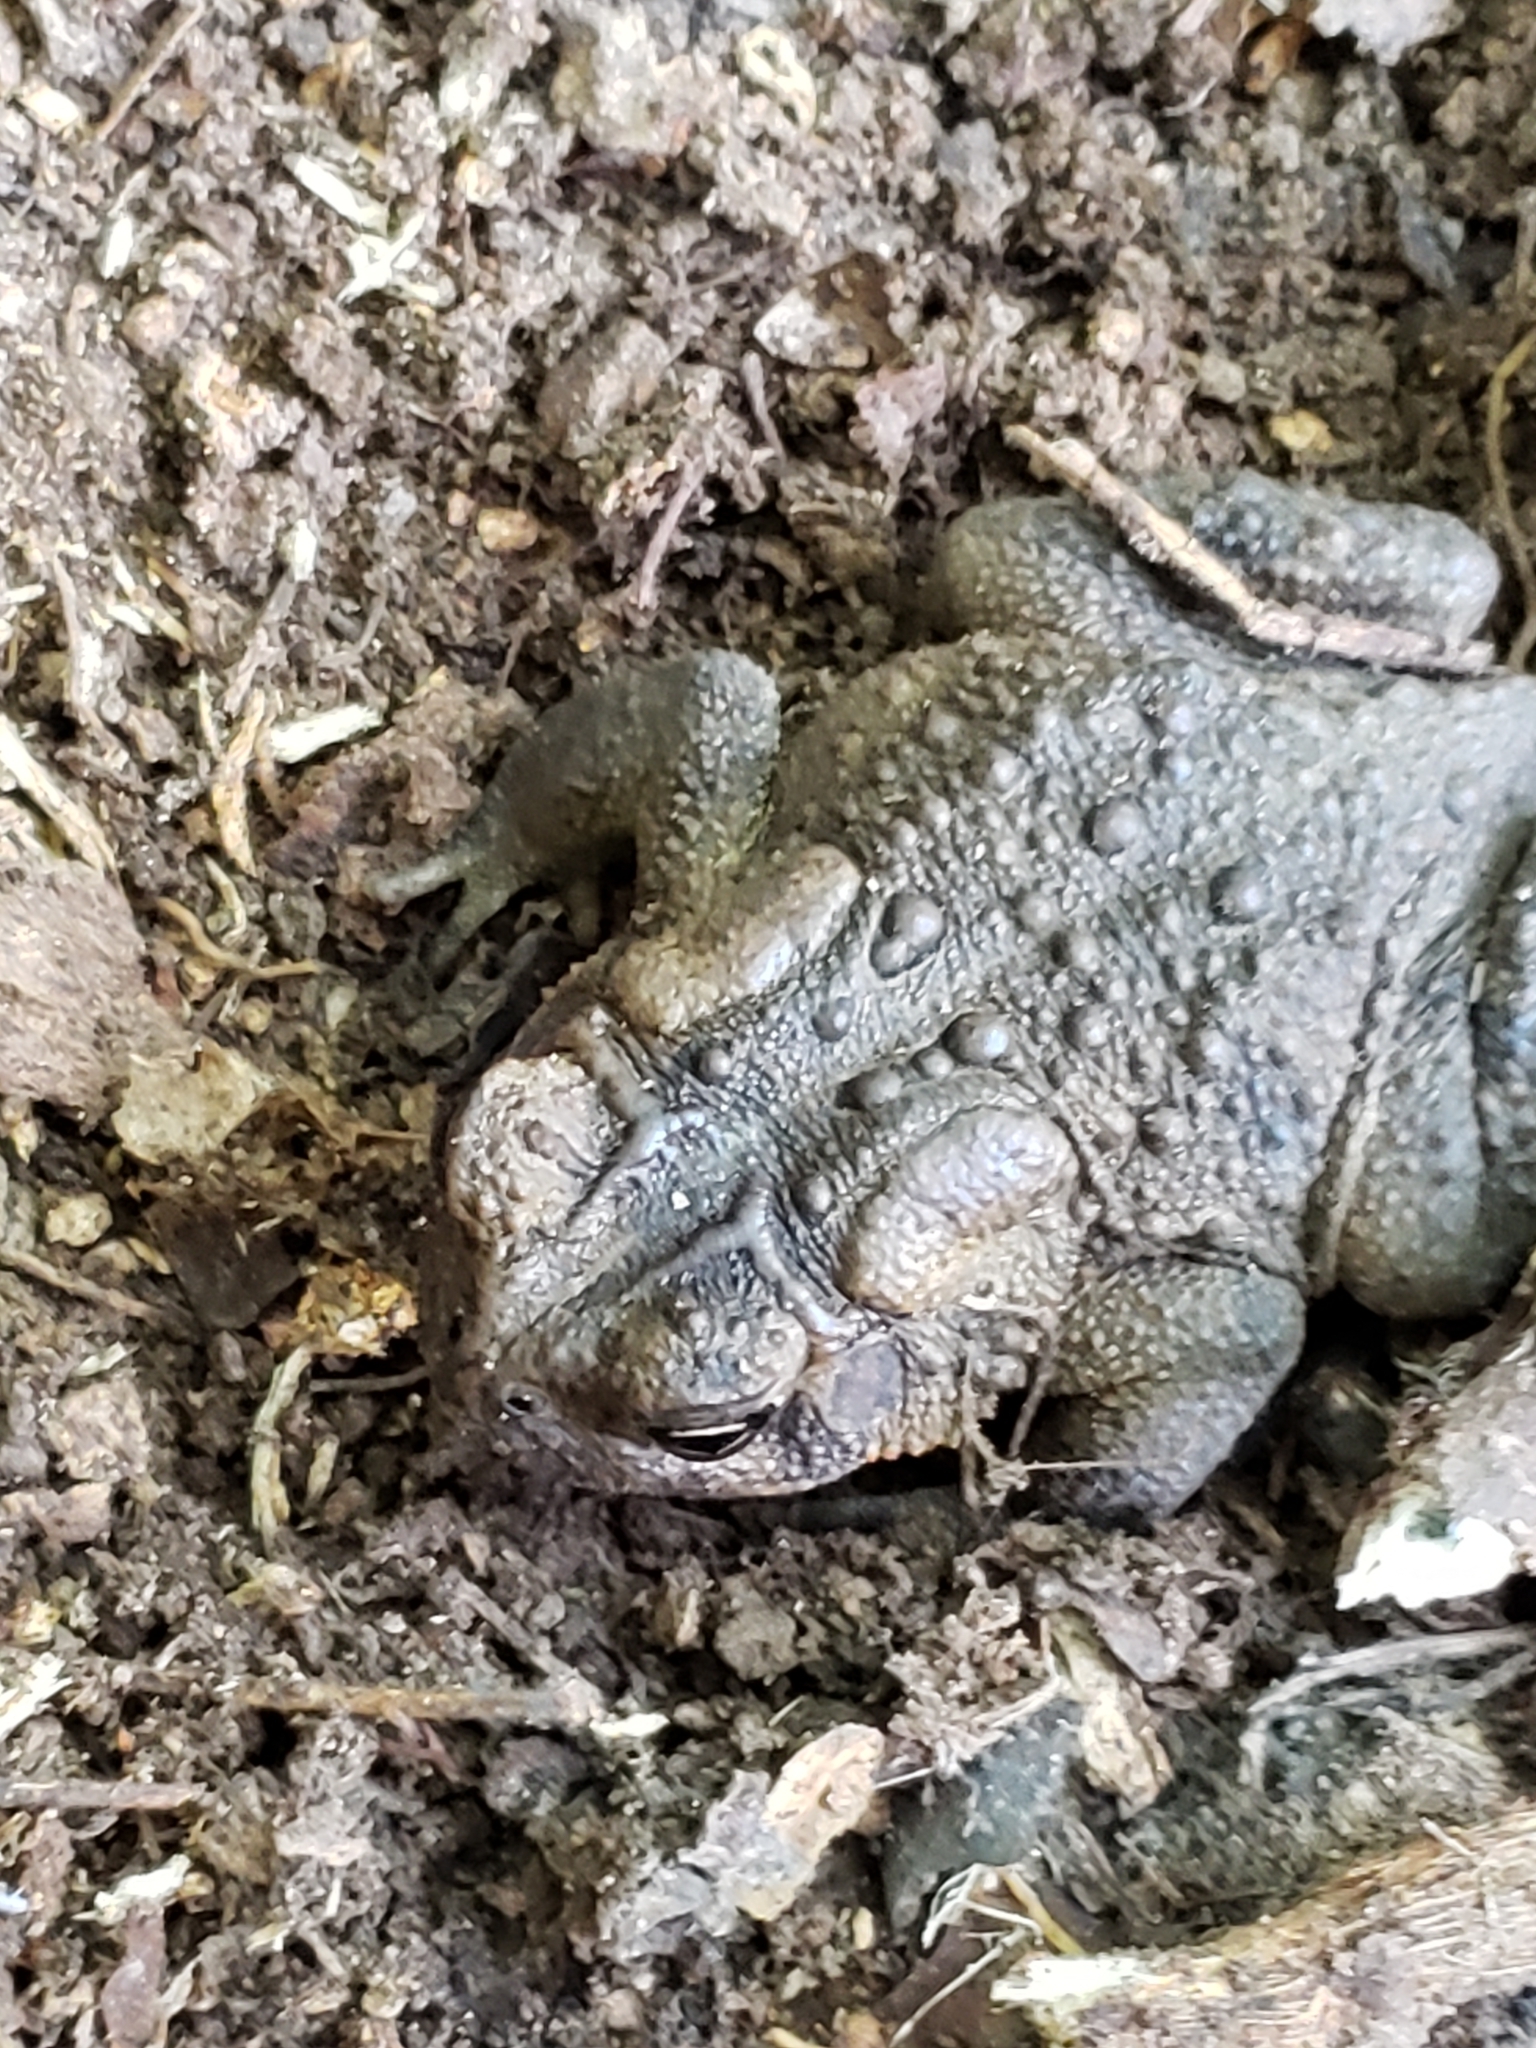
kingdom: Animalia
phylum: Chordata
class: Amphibia
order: Anura
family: Bufonidae
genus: Anaxyrus
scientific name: Anaxyrus americanus
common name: American toad
